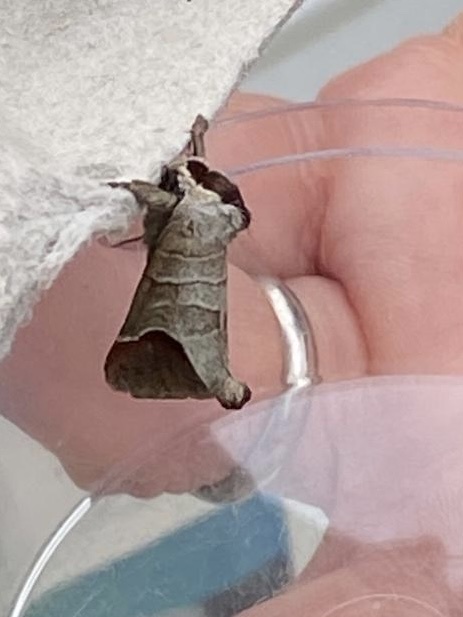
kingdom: Animalia
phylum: Arthropoda
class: Insecta
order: Lepidoptera
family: Notodontidae
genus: Clostera
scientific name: Clostera curtula
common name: Chocolate-tip
